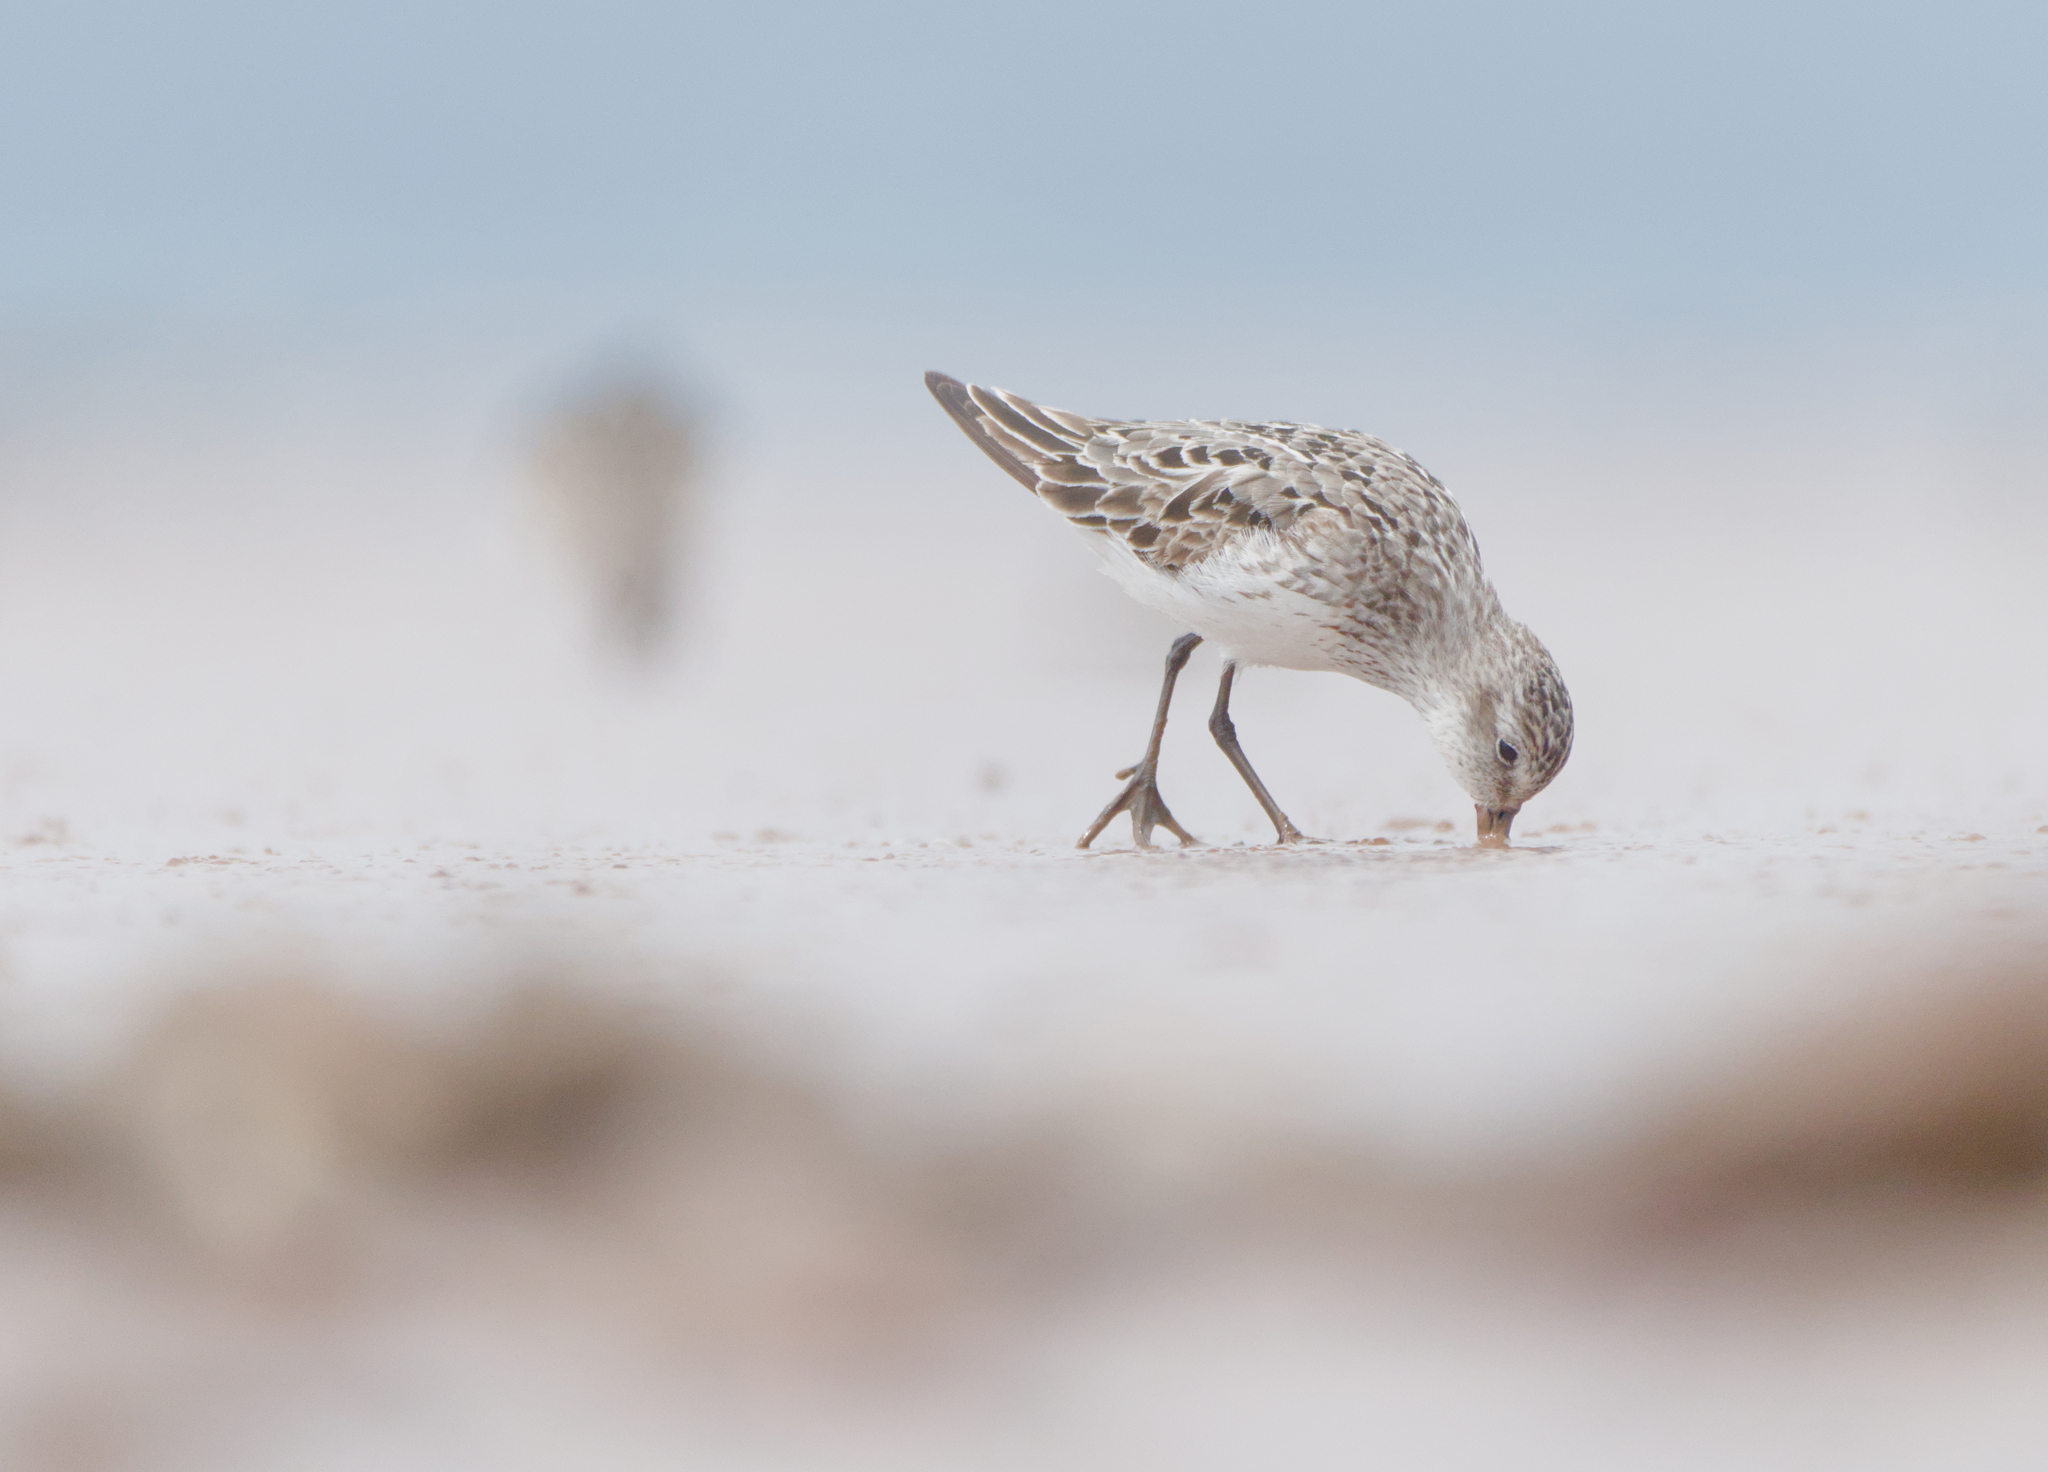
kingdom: Animalia
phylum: Chordata
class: Aves
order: Charadriiformes
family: Scolopacidae
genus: Calidris
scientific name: Calidris pusilla
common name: Semipalmated sandpiper
